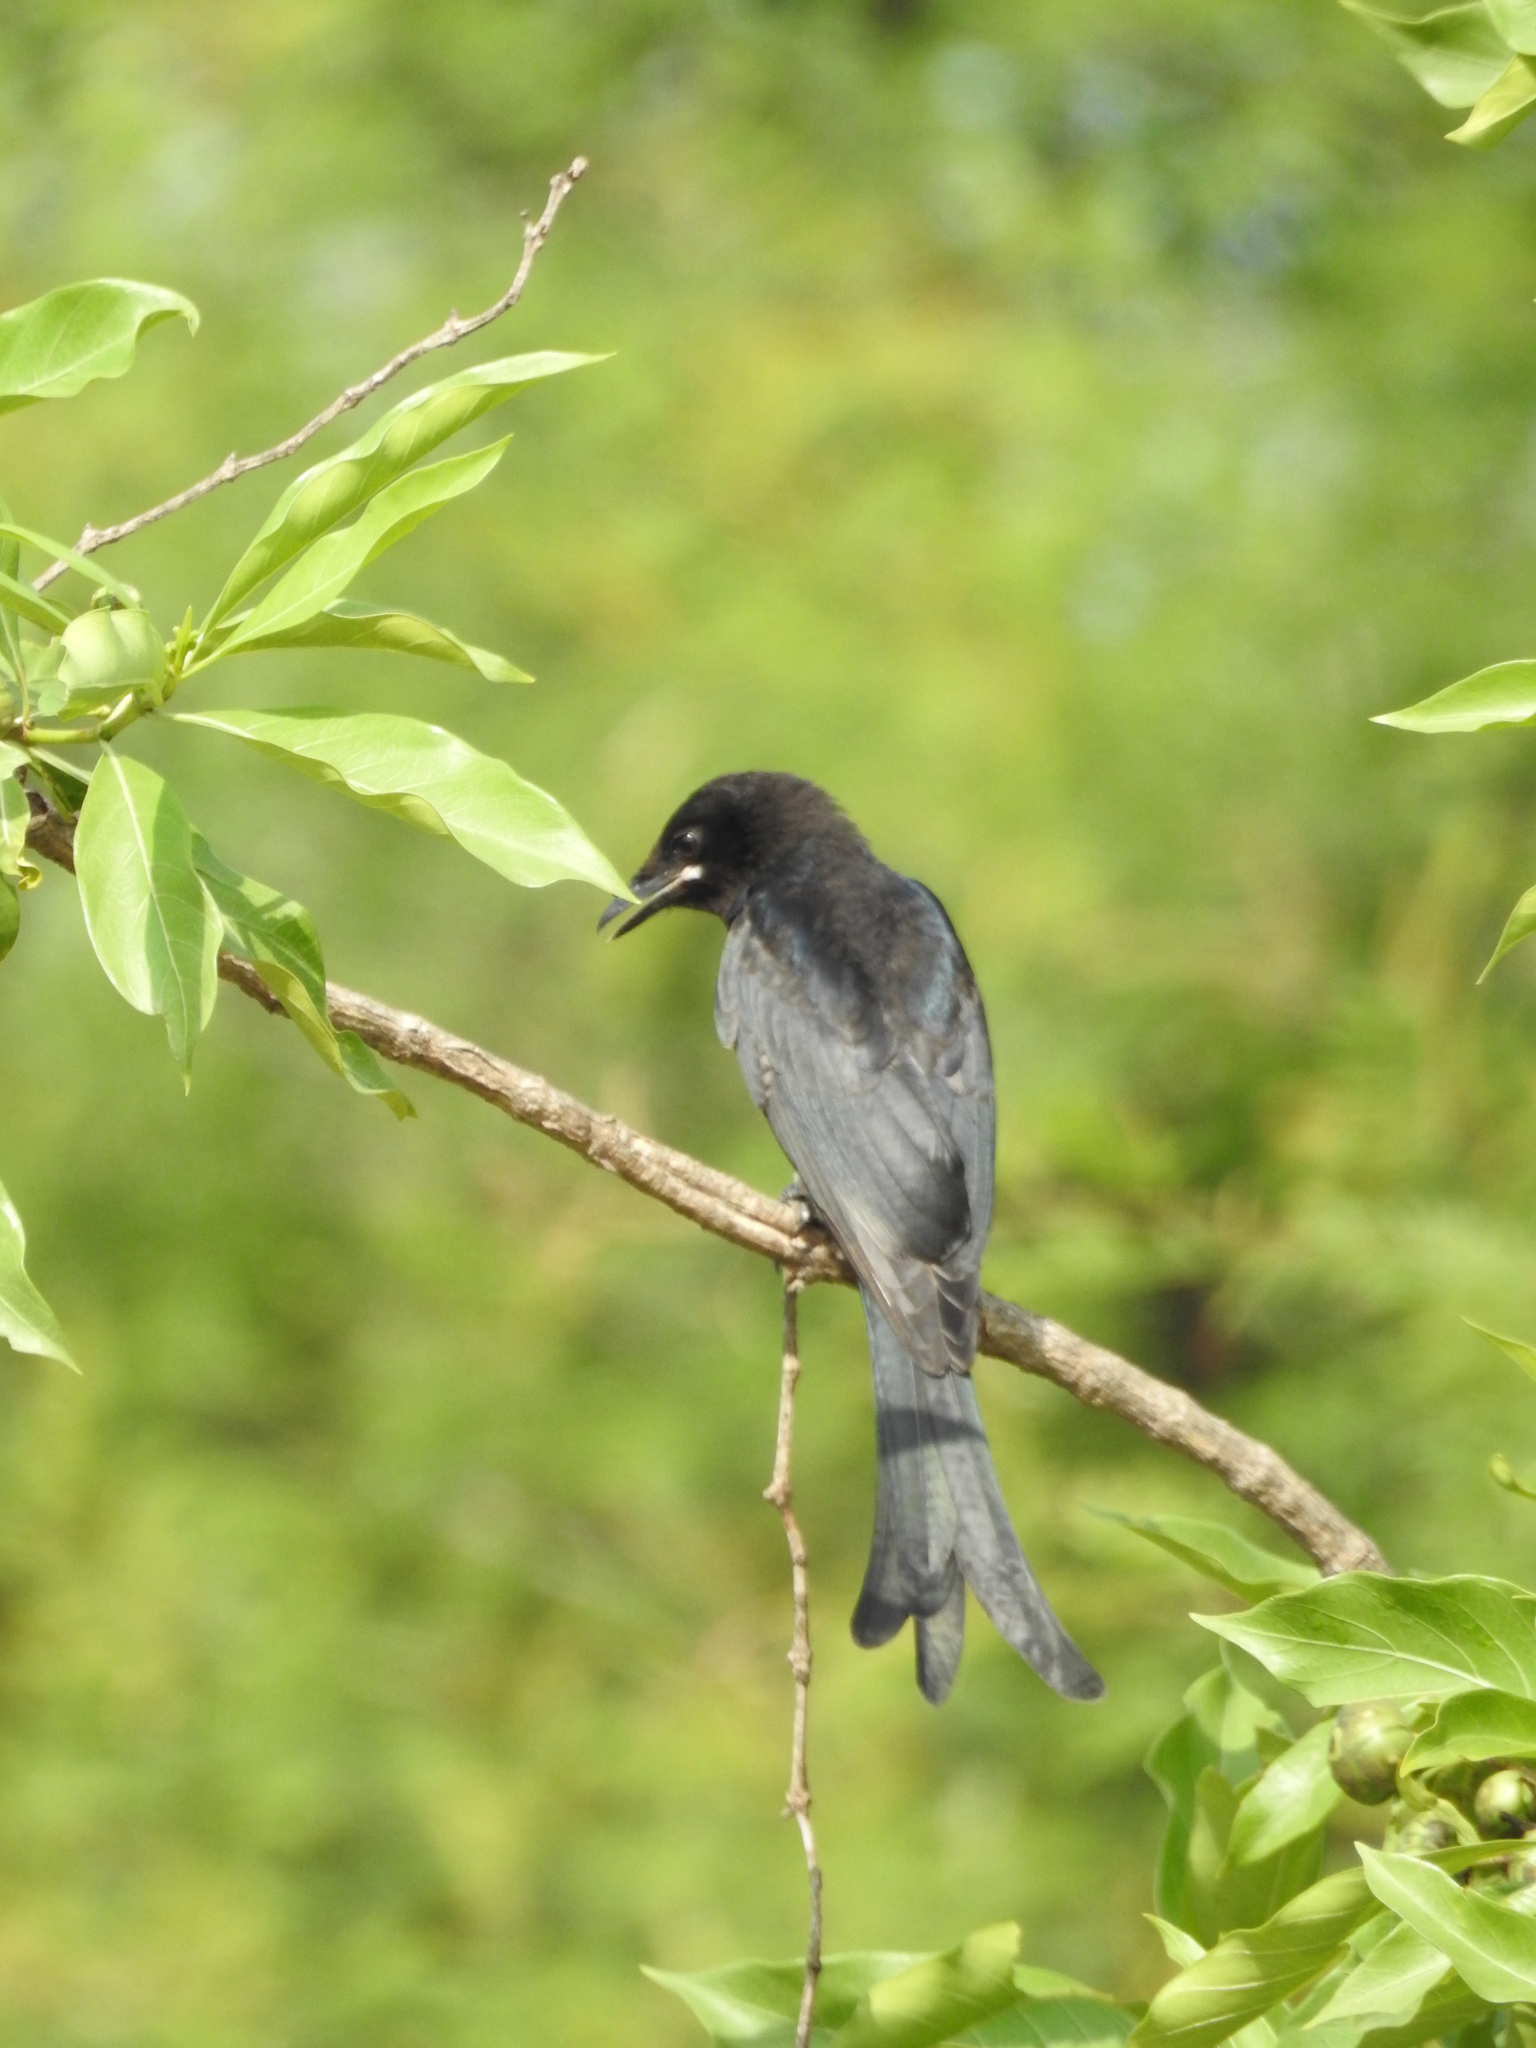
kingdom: Animalia
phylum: Chordata
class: Aves
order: Passeriformes
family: Dicruridae
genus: Dicrurus
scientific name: Dicrurus macrocercus
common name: Black drongo
